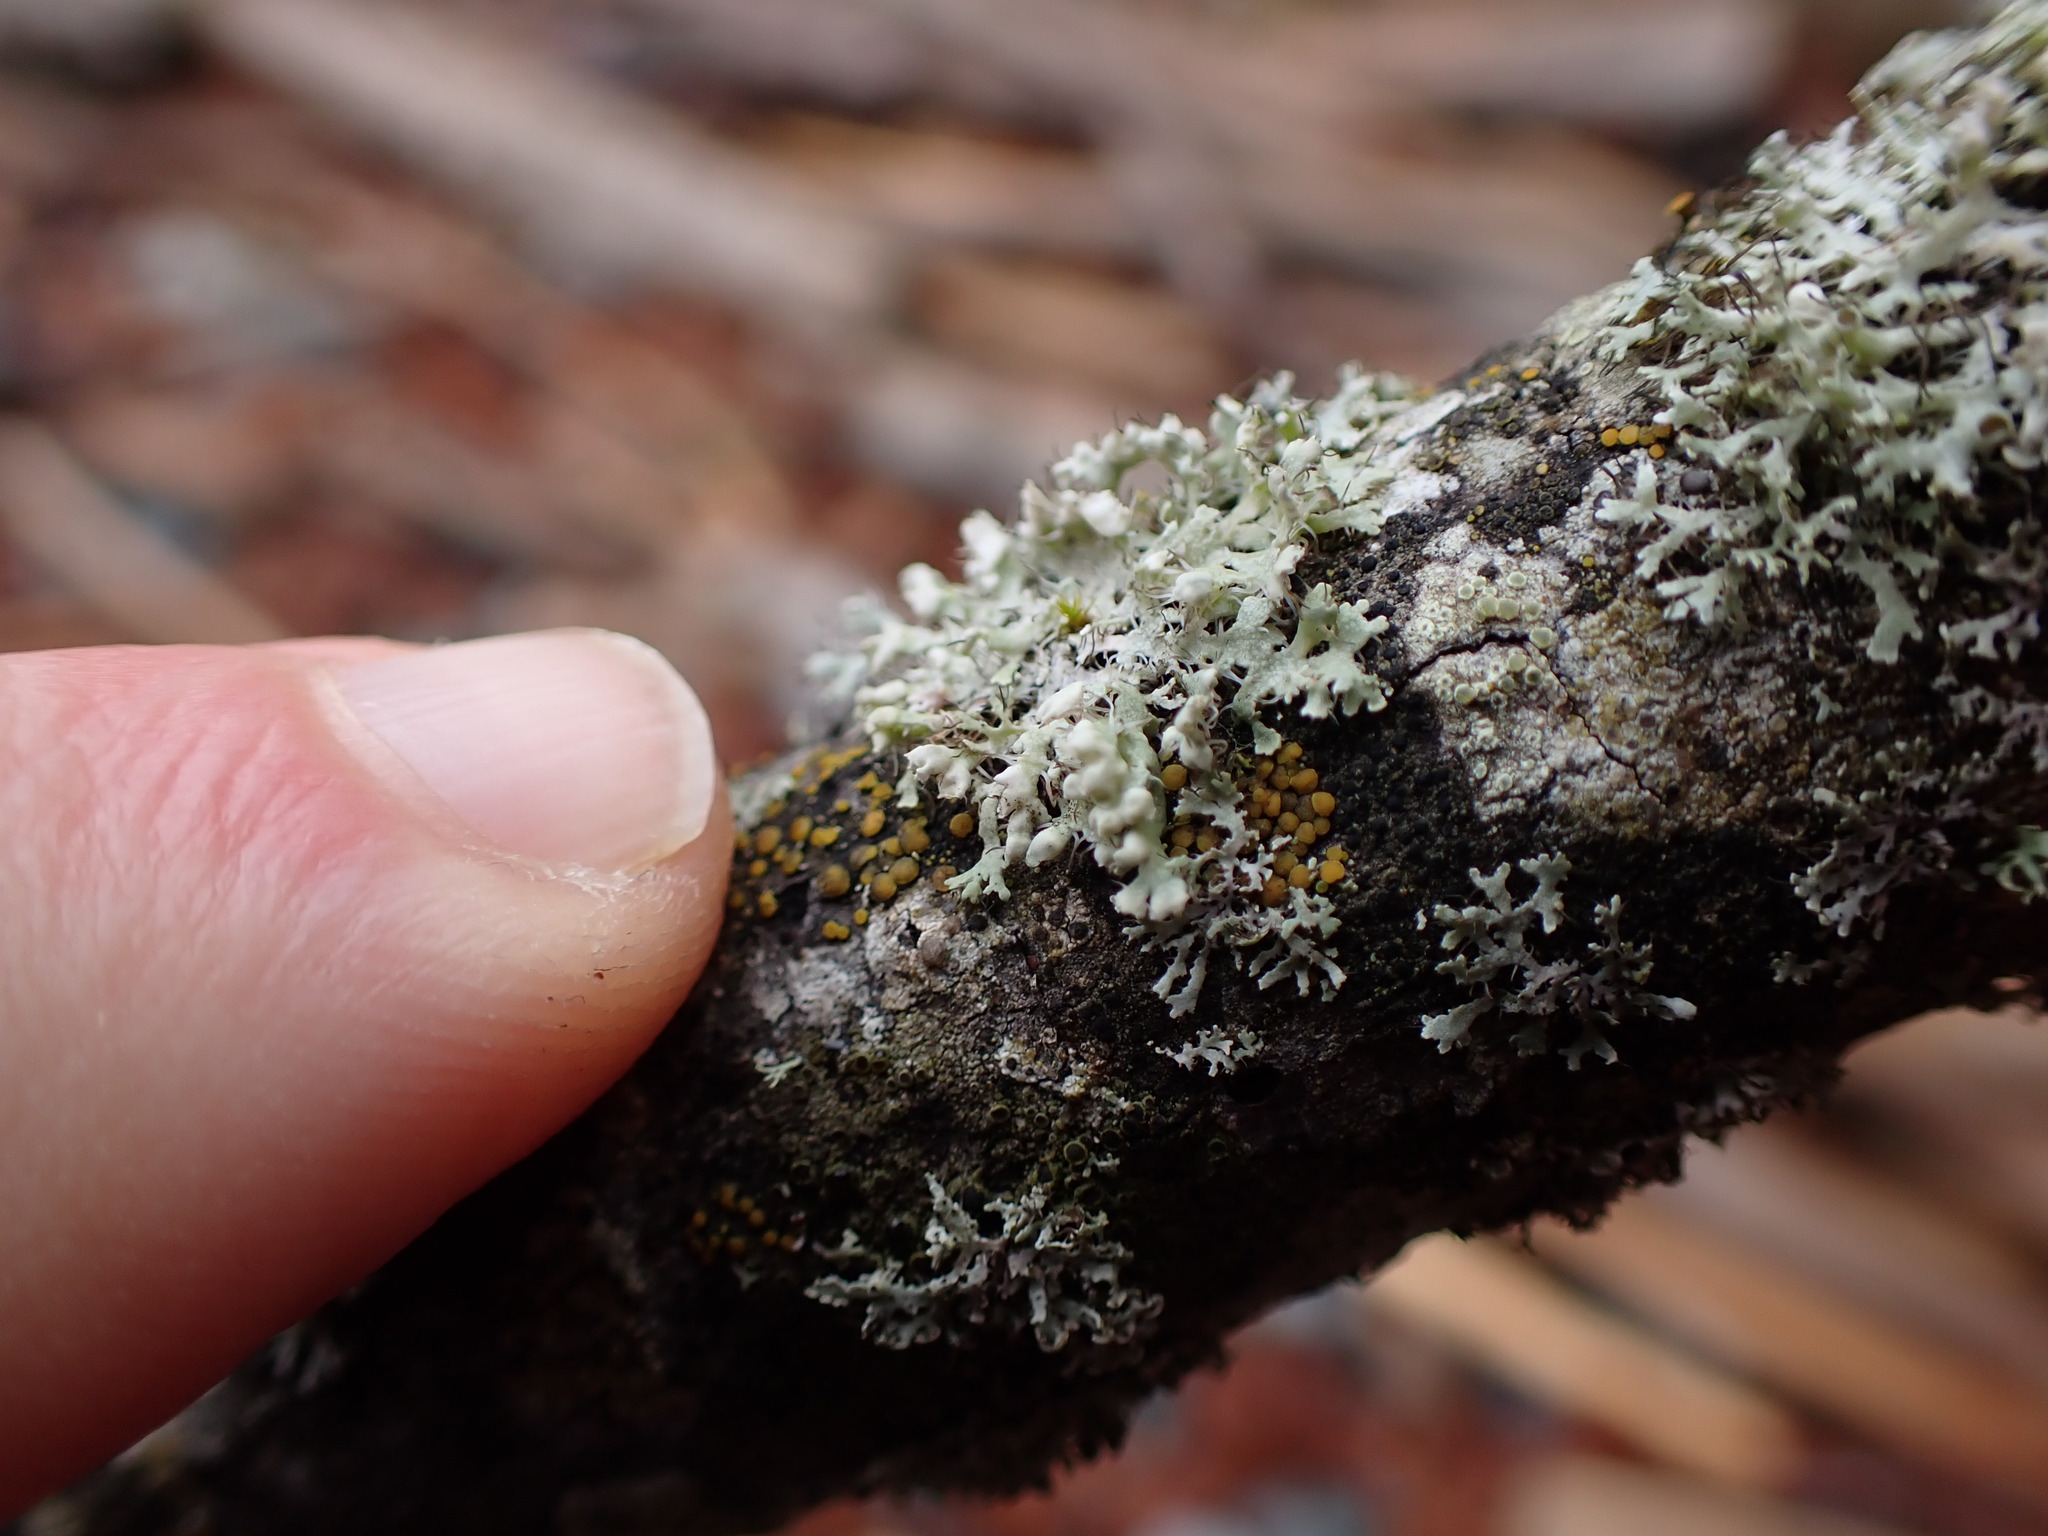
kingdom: Fungi
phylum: Ascomycota
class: Lecanoromycetes
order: Caliciales
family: Physciaceae
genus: Physcia
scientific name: Physcia adscendens
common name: Hooded rosette lichen
